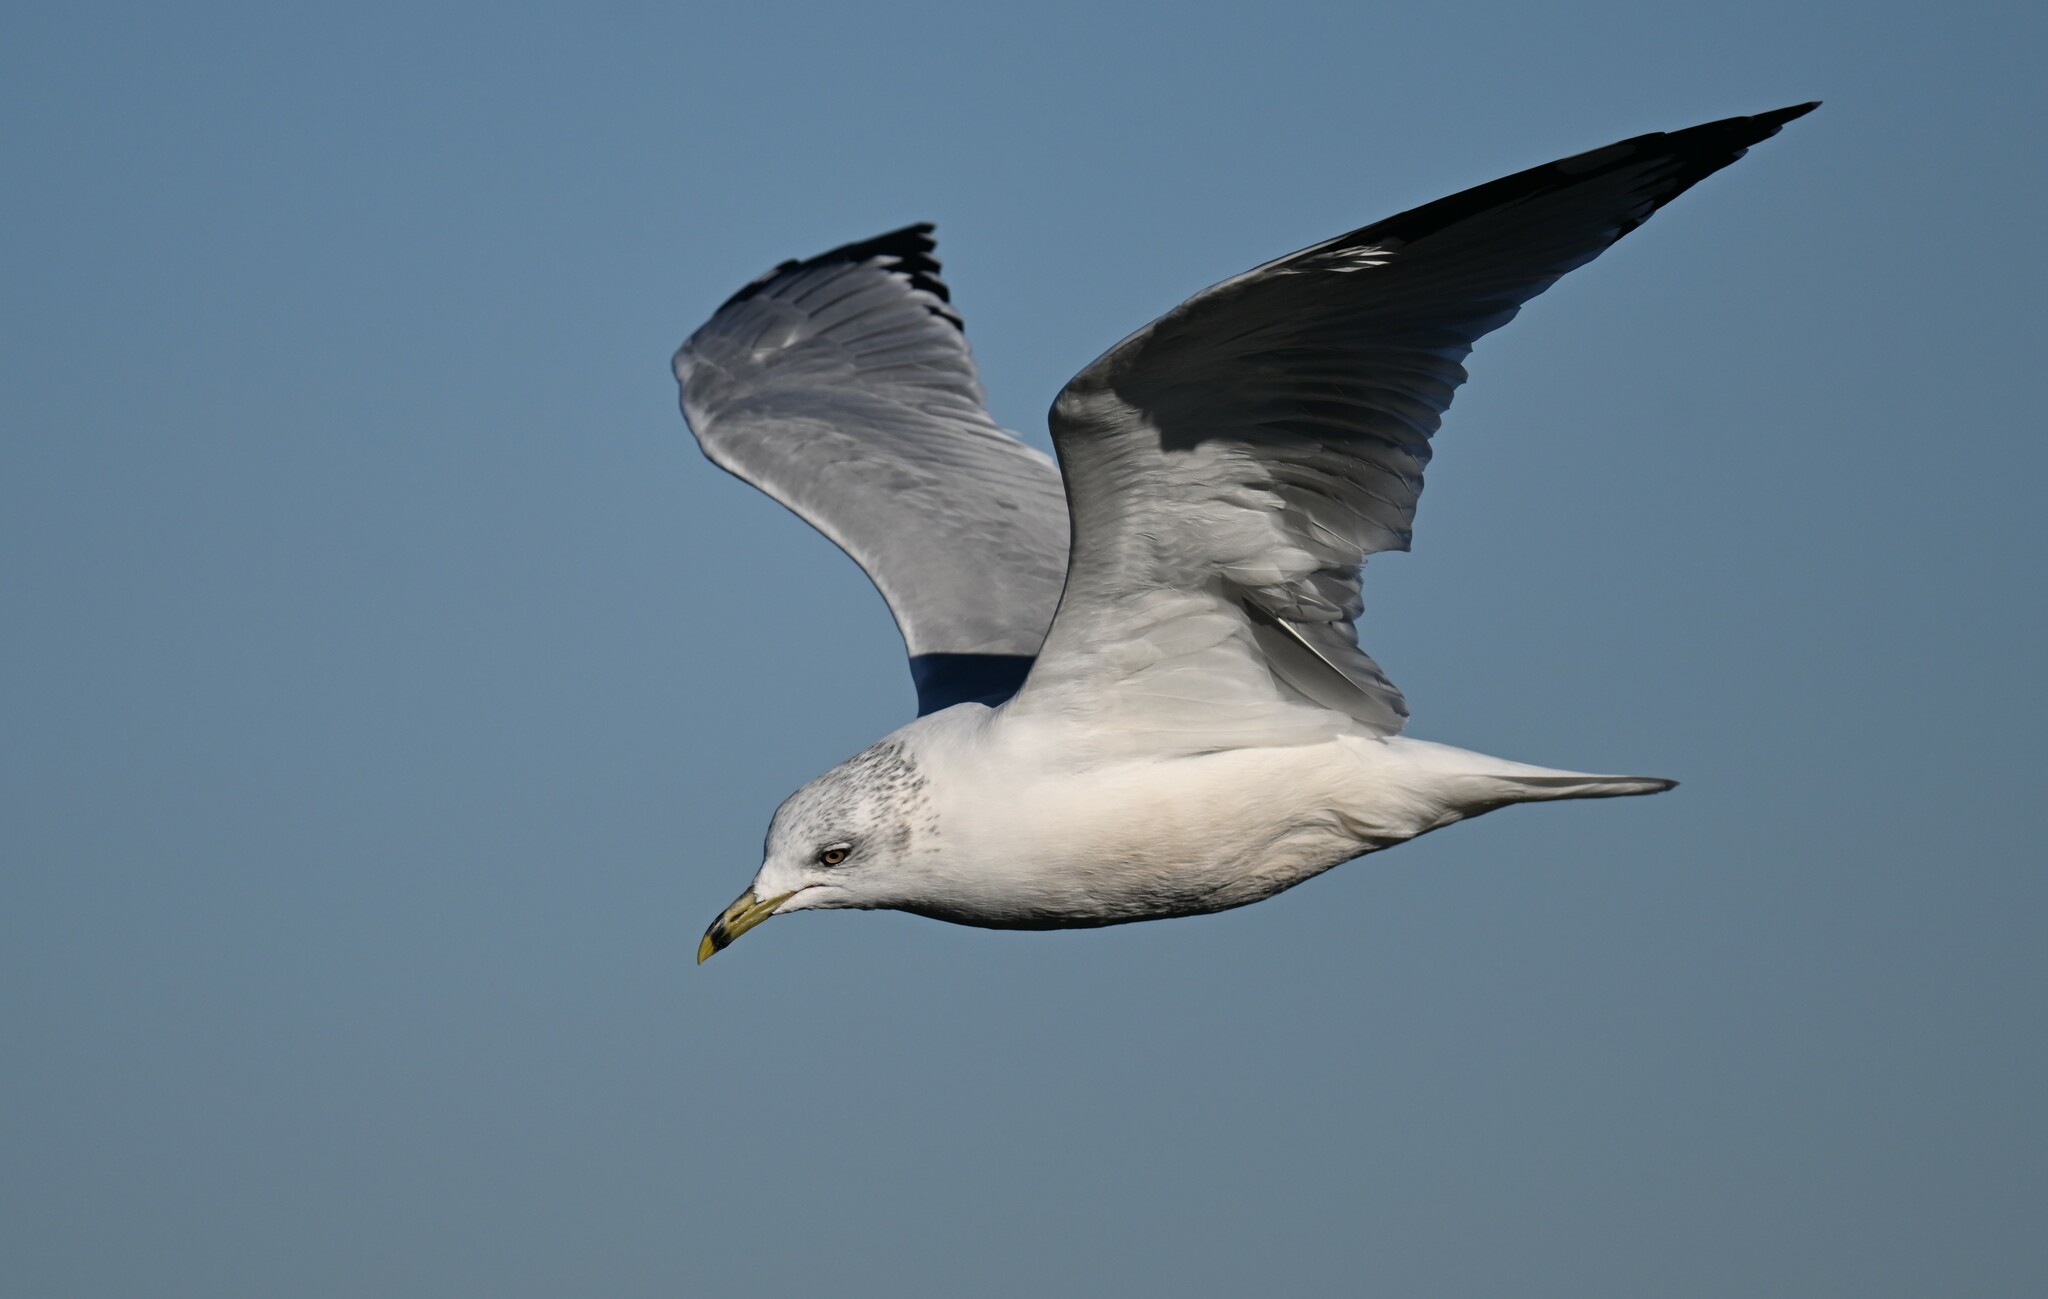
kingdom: Animalia
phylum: Chordata
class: Aves
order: Charadriiformes
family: Laridae
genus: Larus
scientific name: Larus delawarensis
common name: Ring-billed gull
